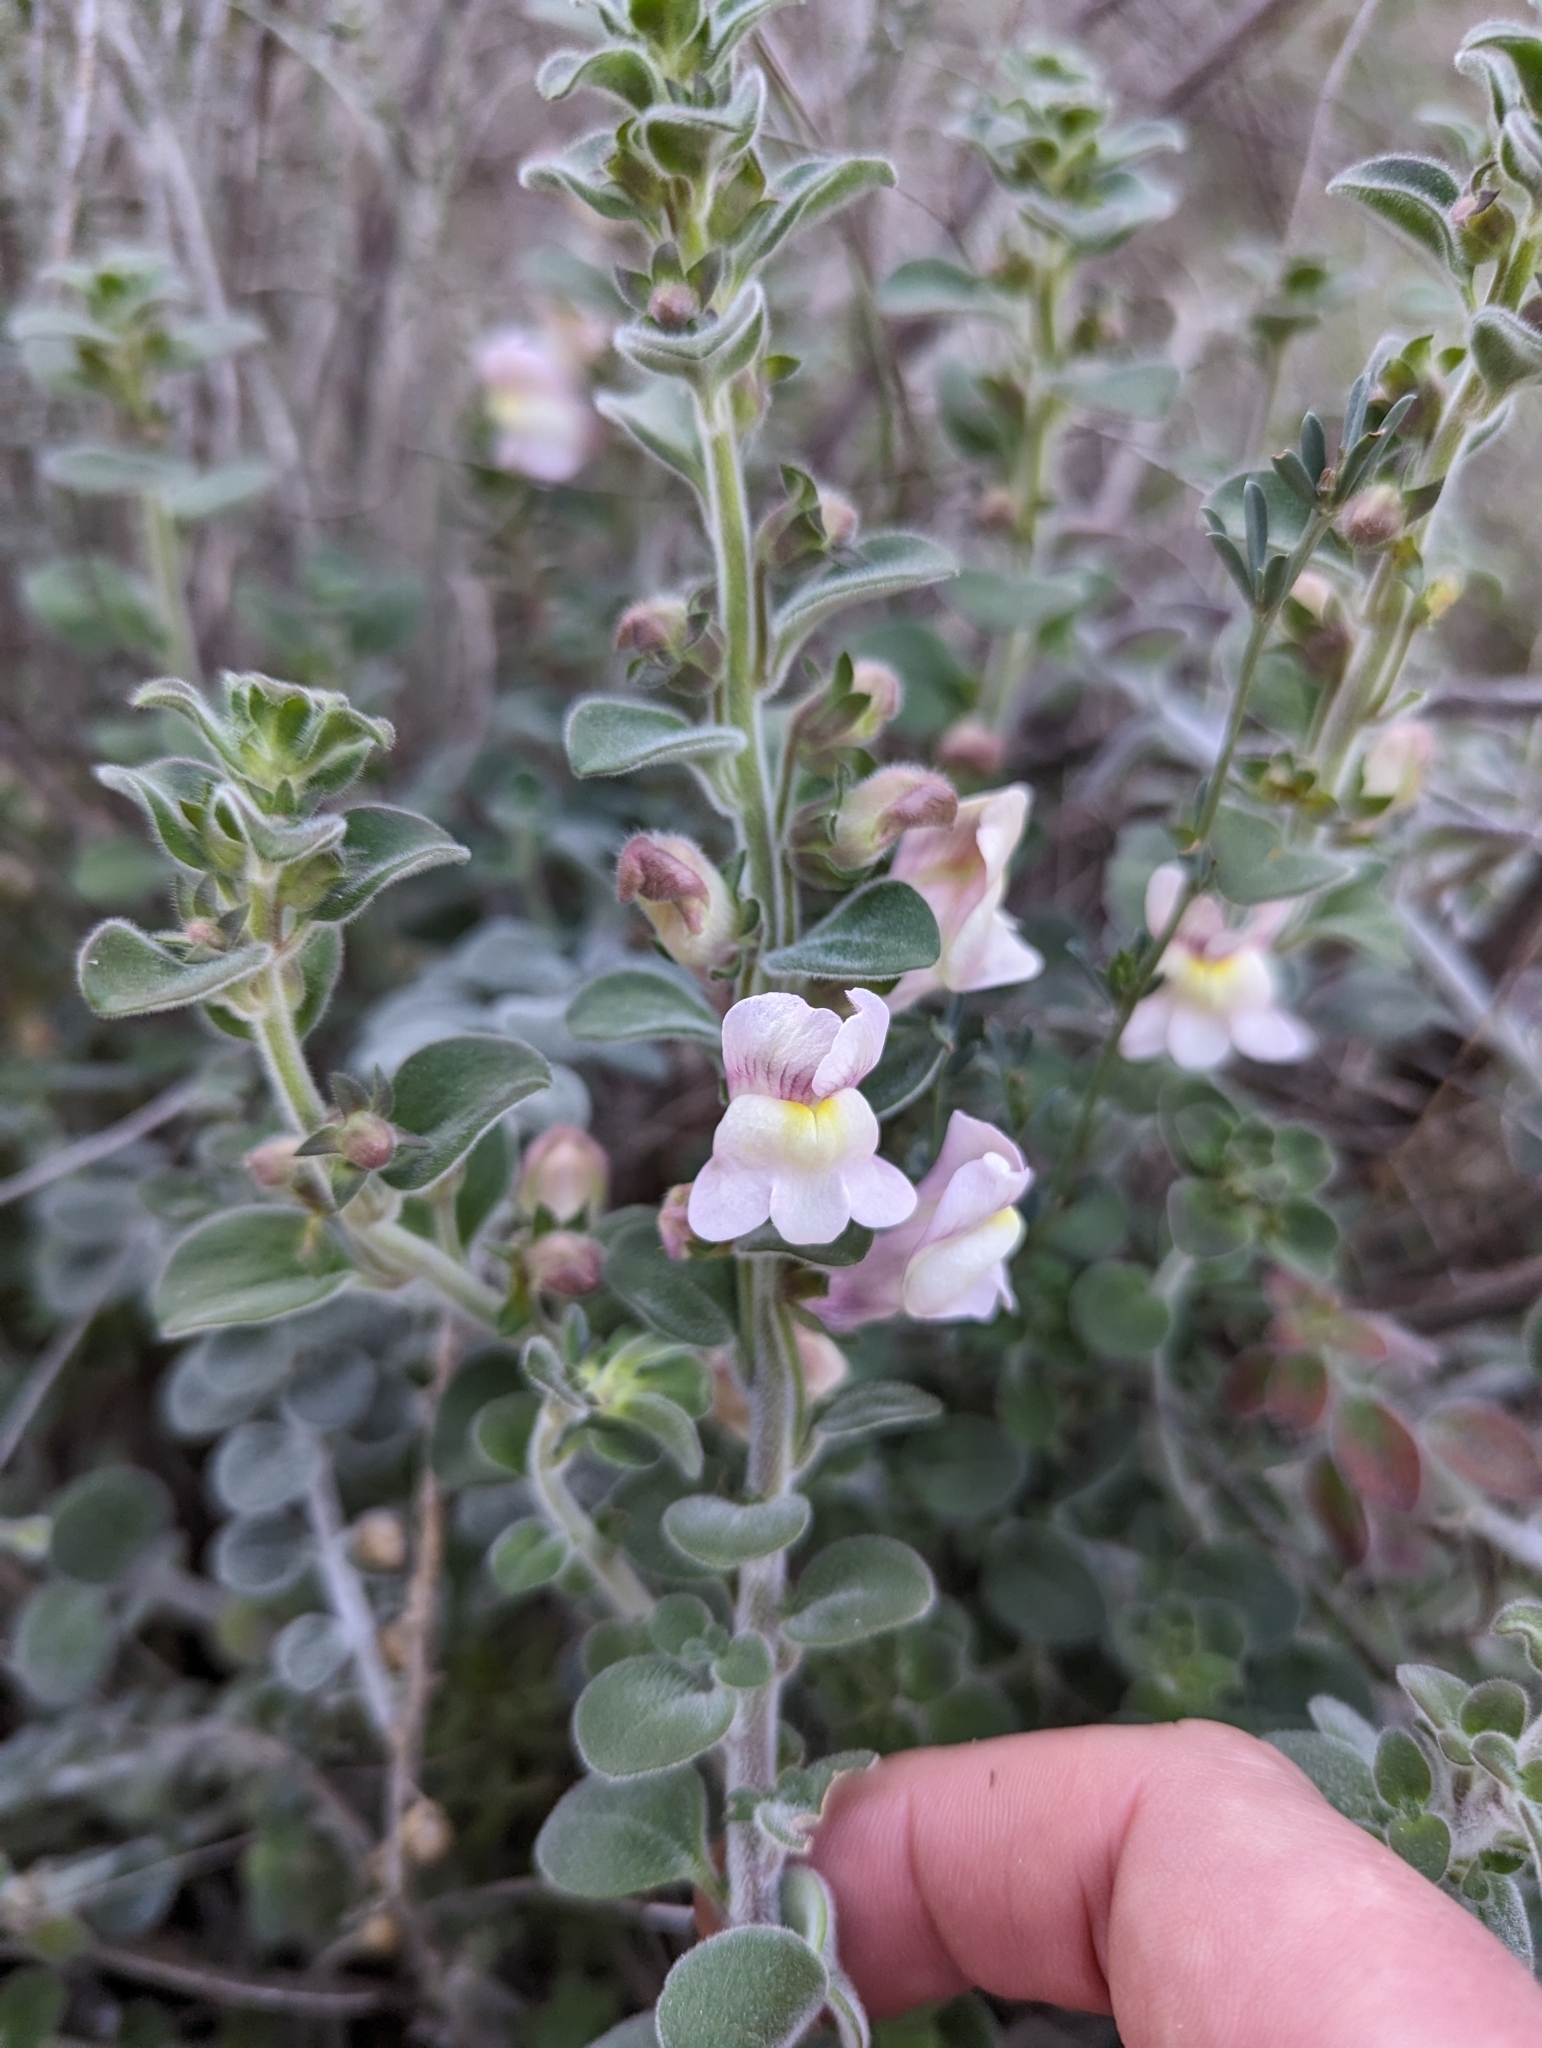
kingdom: Plantae
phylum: Tracheophyta
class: Magnoliopsida
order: Lamiales
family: Plantaginaceae
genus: Antirrhinum
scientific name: Antirrhinum molle
